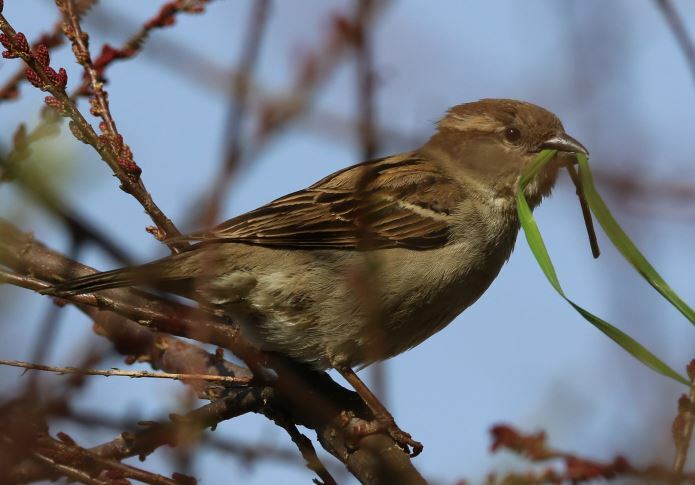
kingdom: Animalia
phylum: Chordata
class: Aves
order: Passeriformes
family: Passeridae
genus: Passer
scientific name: Passer domesticus
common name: House sparrow
